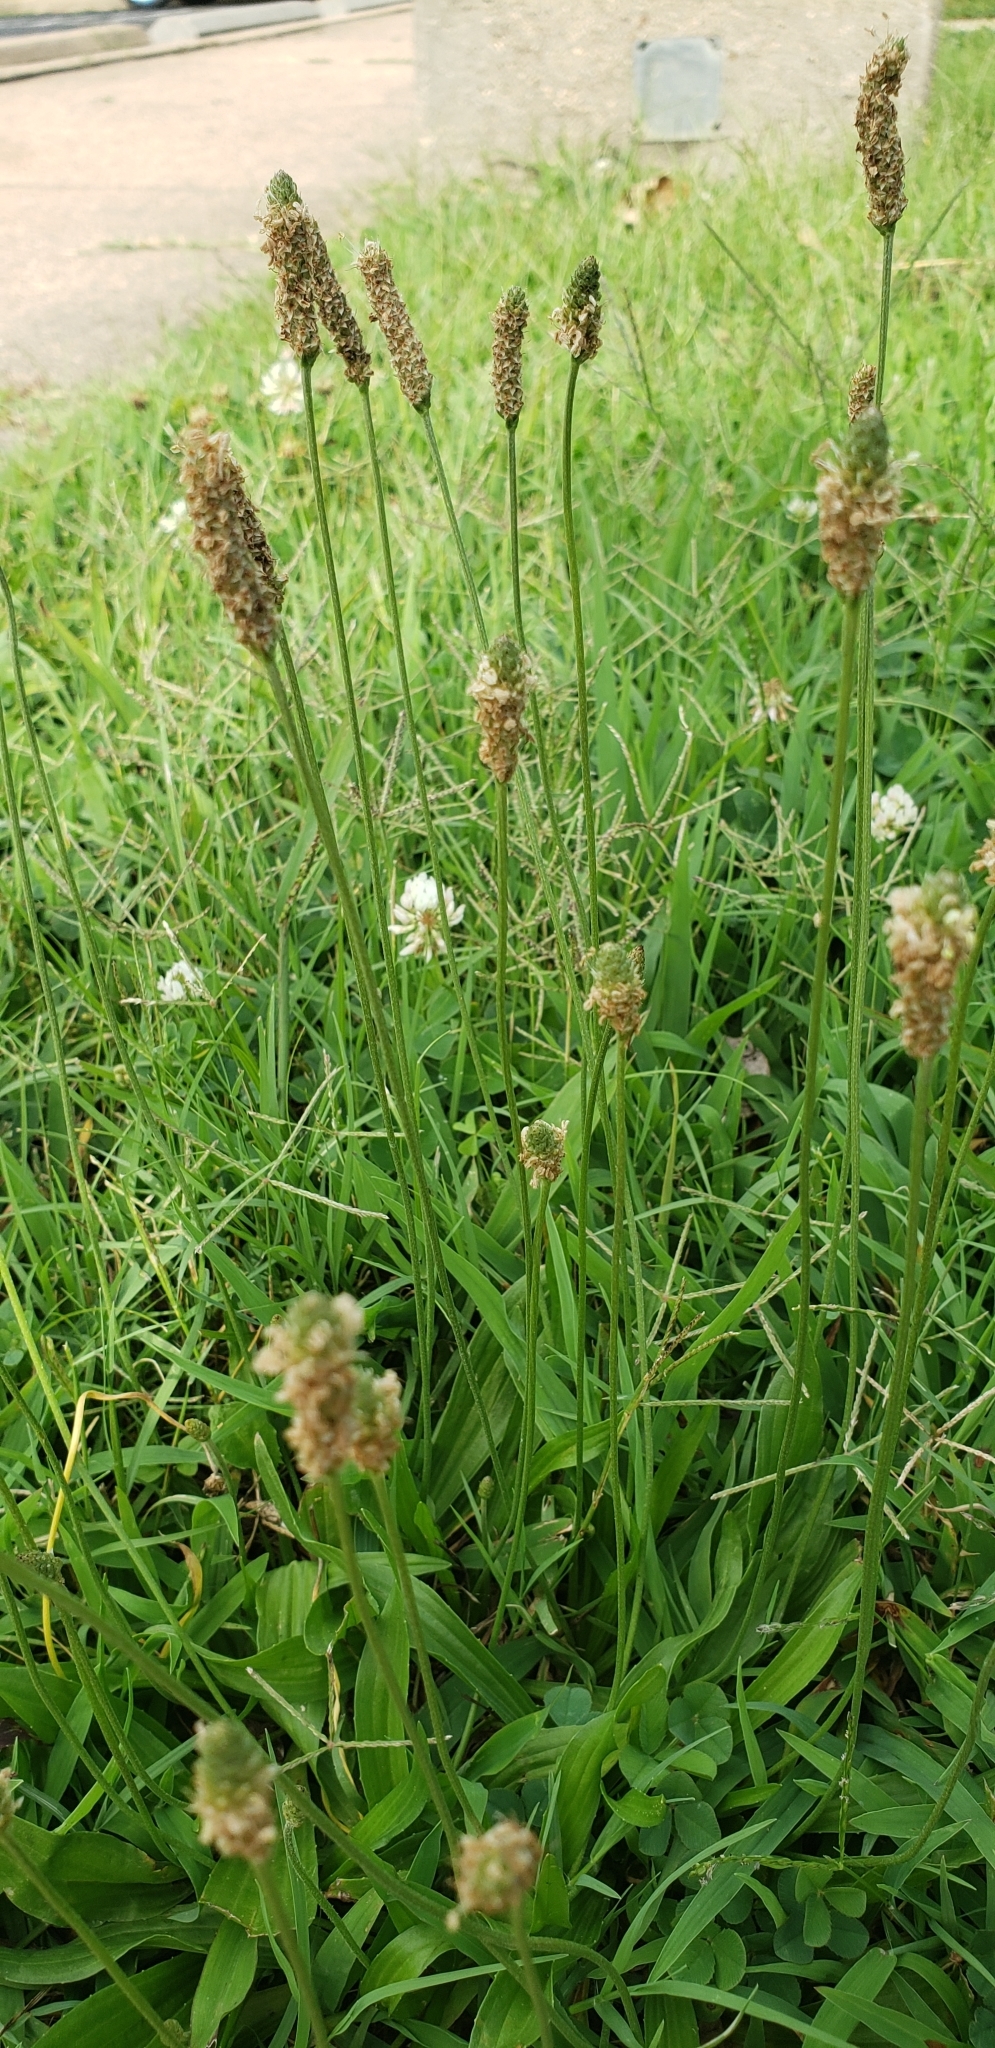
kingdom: Plantae
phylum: Tracheophyta
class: Magnoliopsida
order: Lamiales
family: Plantaginaceae
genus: Plantago
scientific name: Plantago lanceolata
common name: Ribwort plantain
